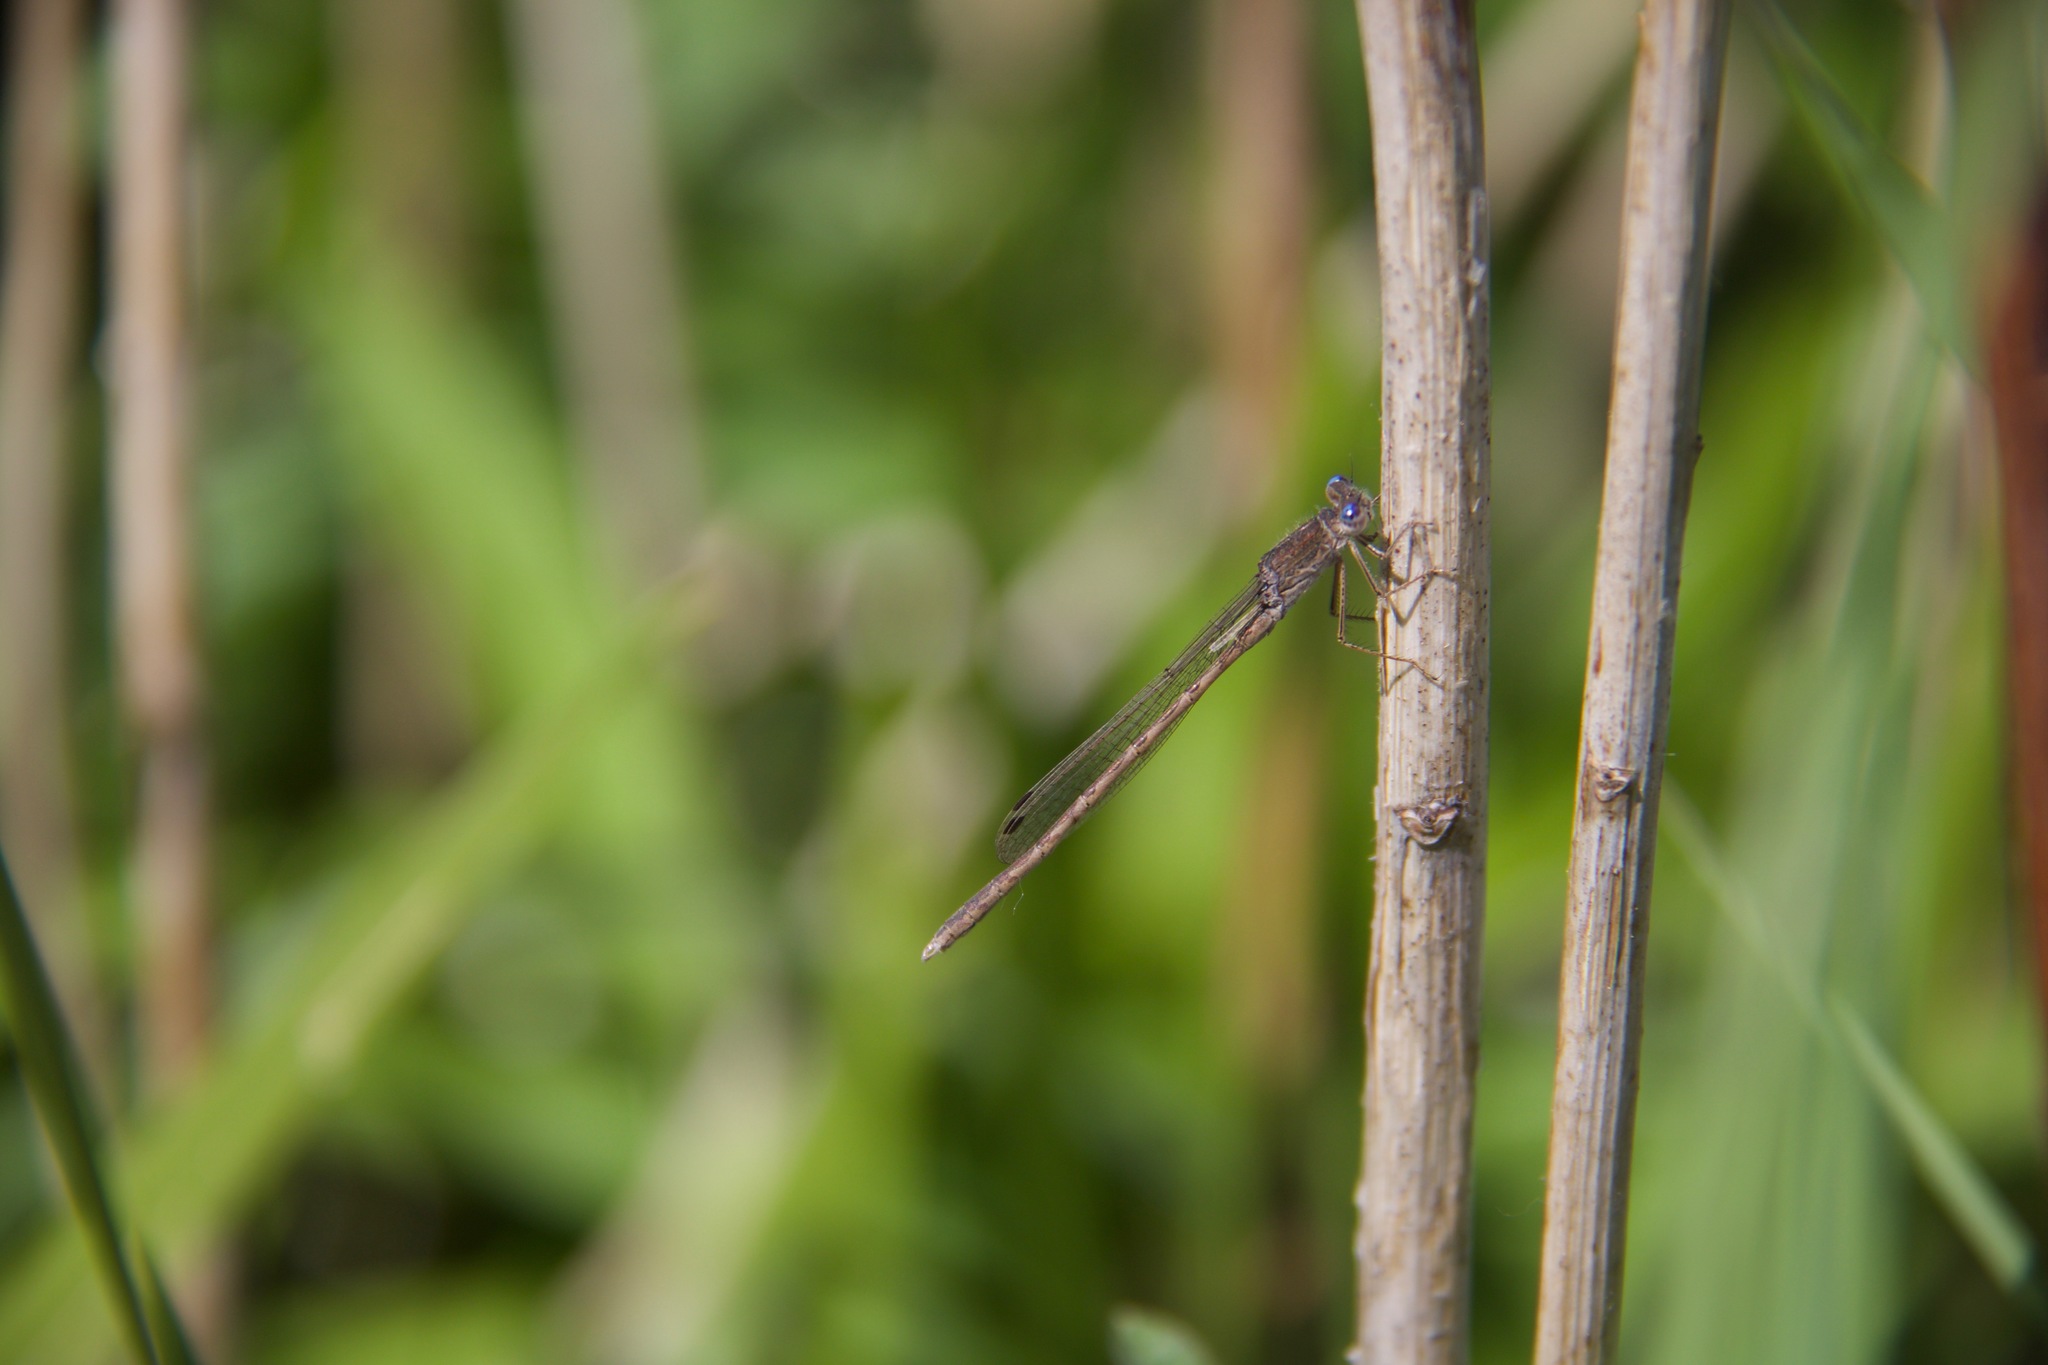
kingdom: Animalia
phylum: Arthropoda
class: Insecta
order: Odonata
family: Lestidae
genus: Sympecma
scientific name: Sympecma paedisca
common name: Siberian winter damsel
